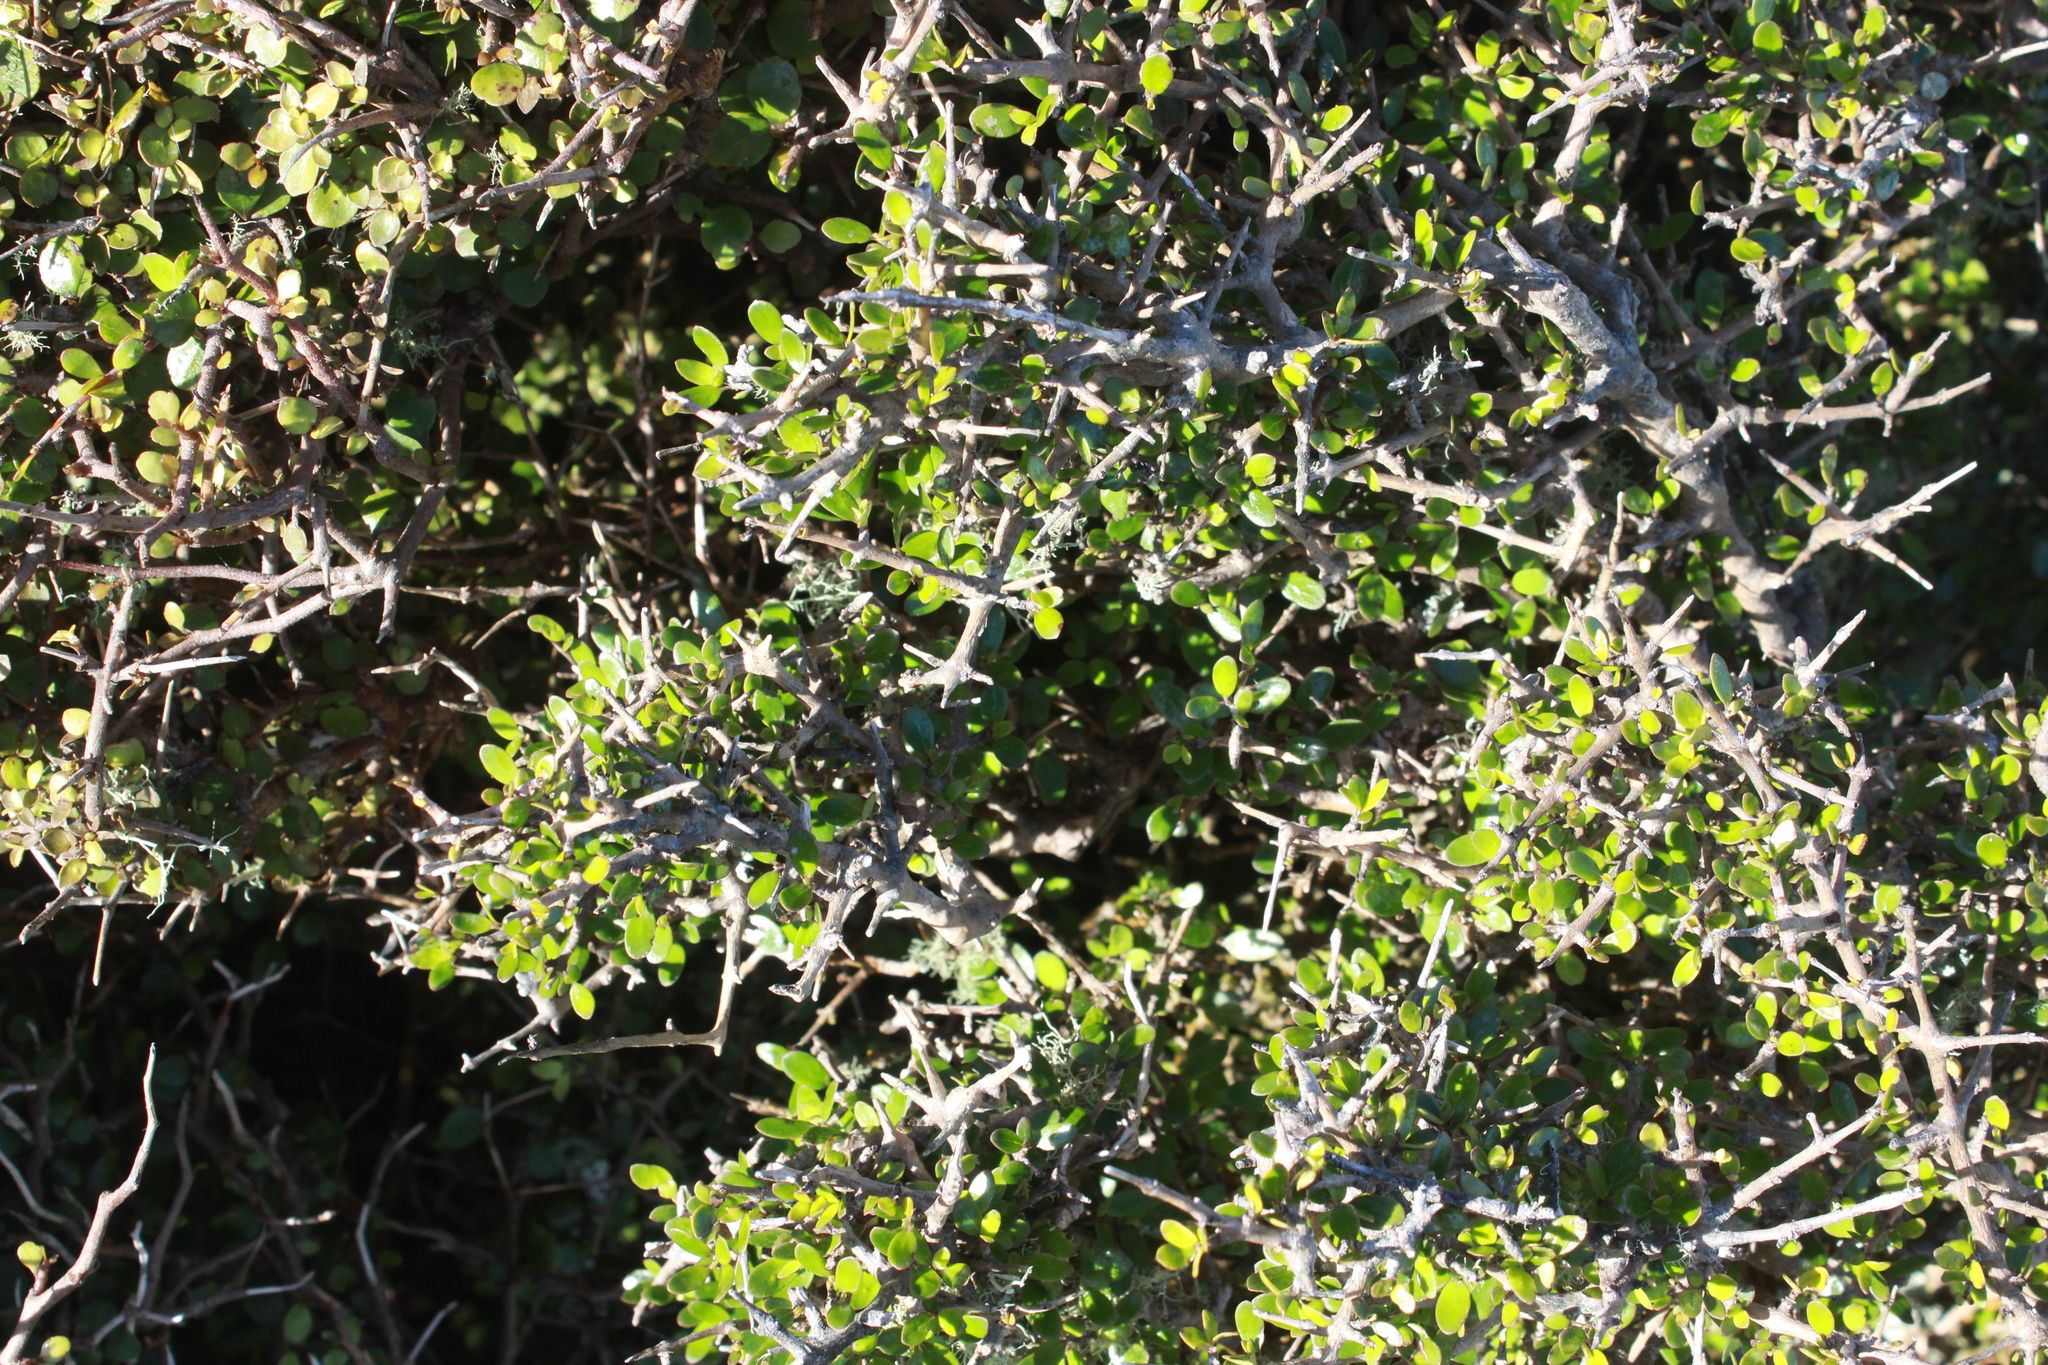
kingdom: Plantae
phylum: Tracheophyta
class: Magnoliopsida
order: Gentianales
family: Rubiaceae
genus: Coprosma
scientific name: Coprosma propinqua
